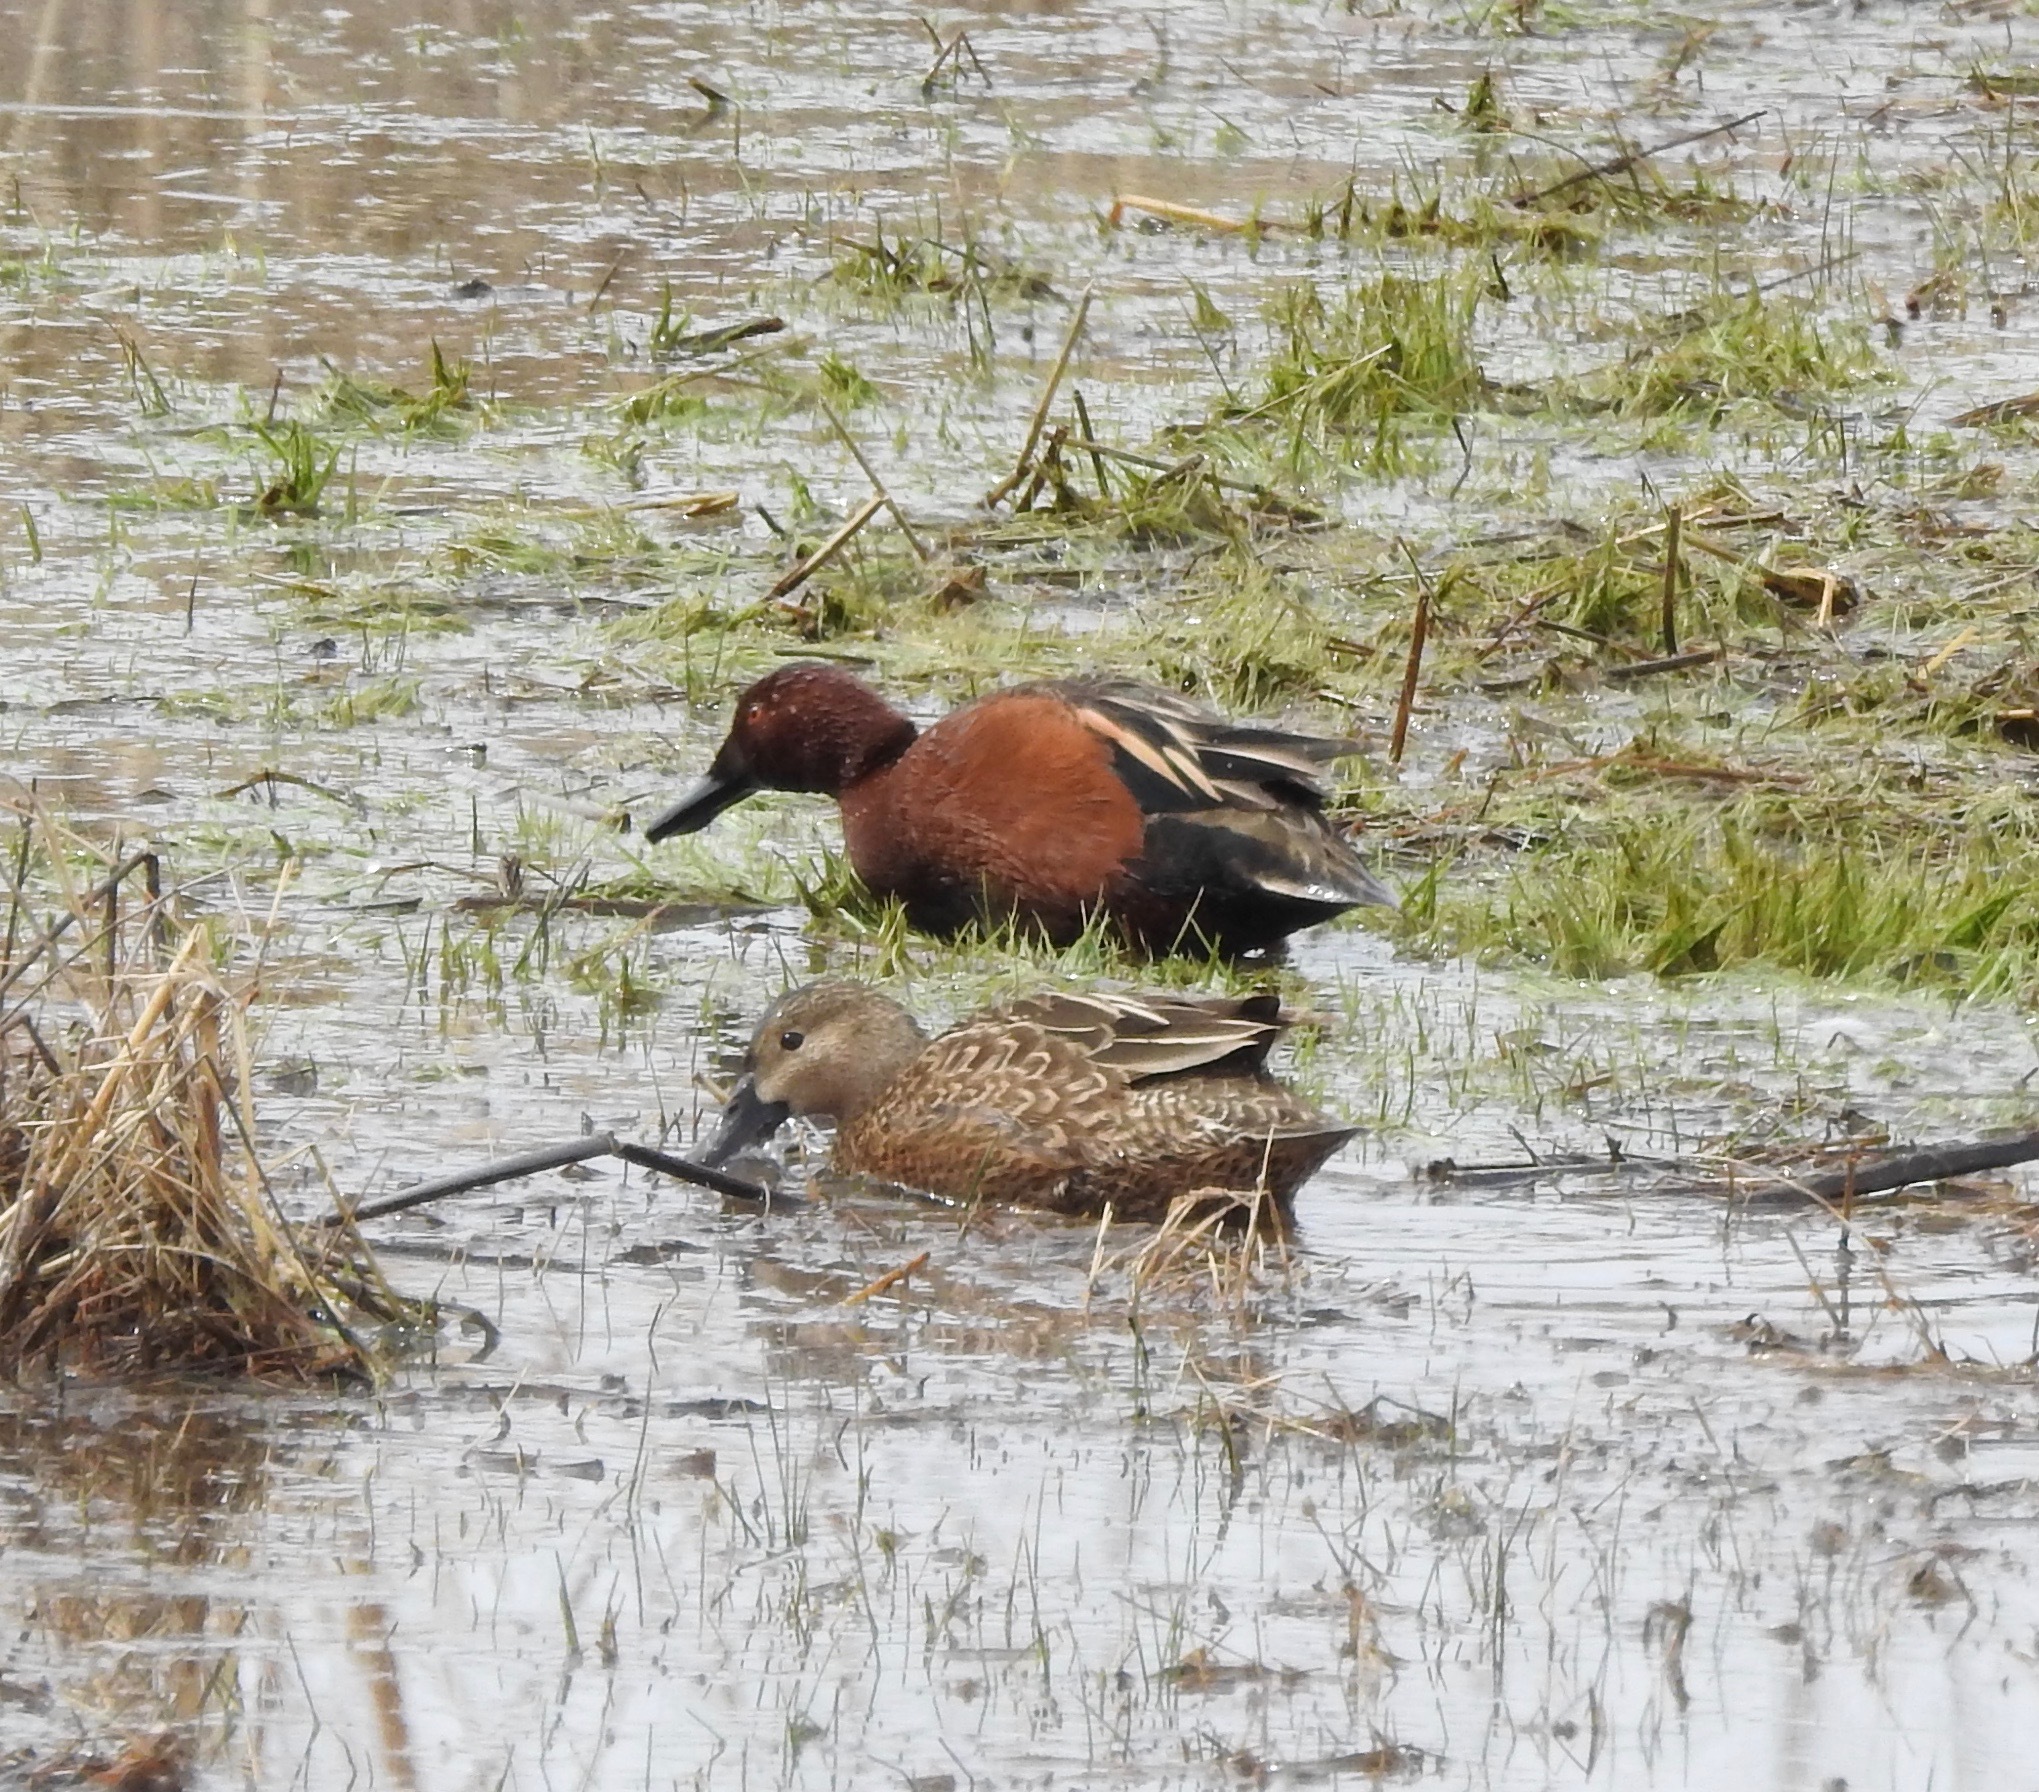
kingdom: Animalia
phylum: Chordata
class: Aves
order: Anseriformes
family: Anatidae
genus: Spatula
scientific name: Spatula cyanoptera
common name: Cinnamon teal
